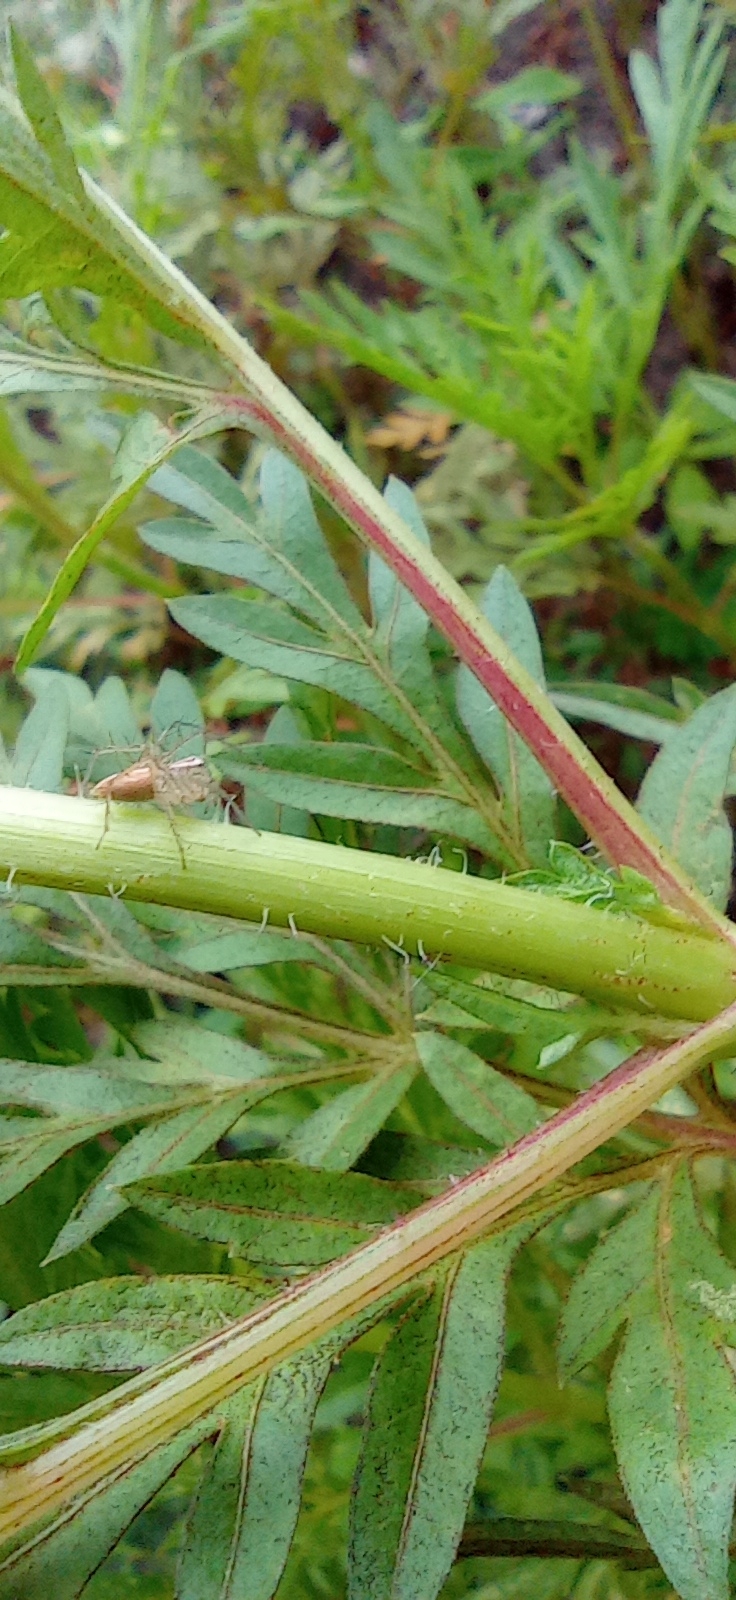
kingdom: Animalia
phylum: Arthropoda
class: Arachnida
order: Araneae
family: Oxyopidae
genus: Oxyopes
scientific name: Oxyopes salticus
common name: Lynx spiders
